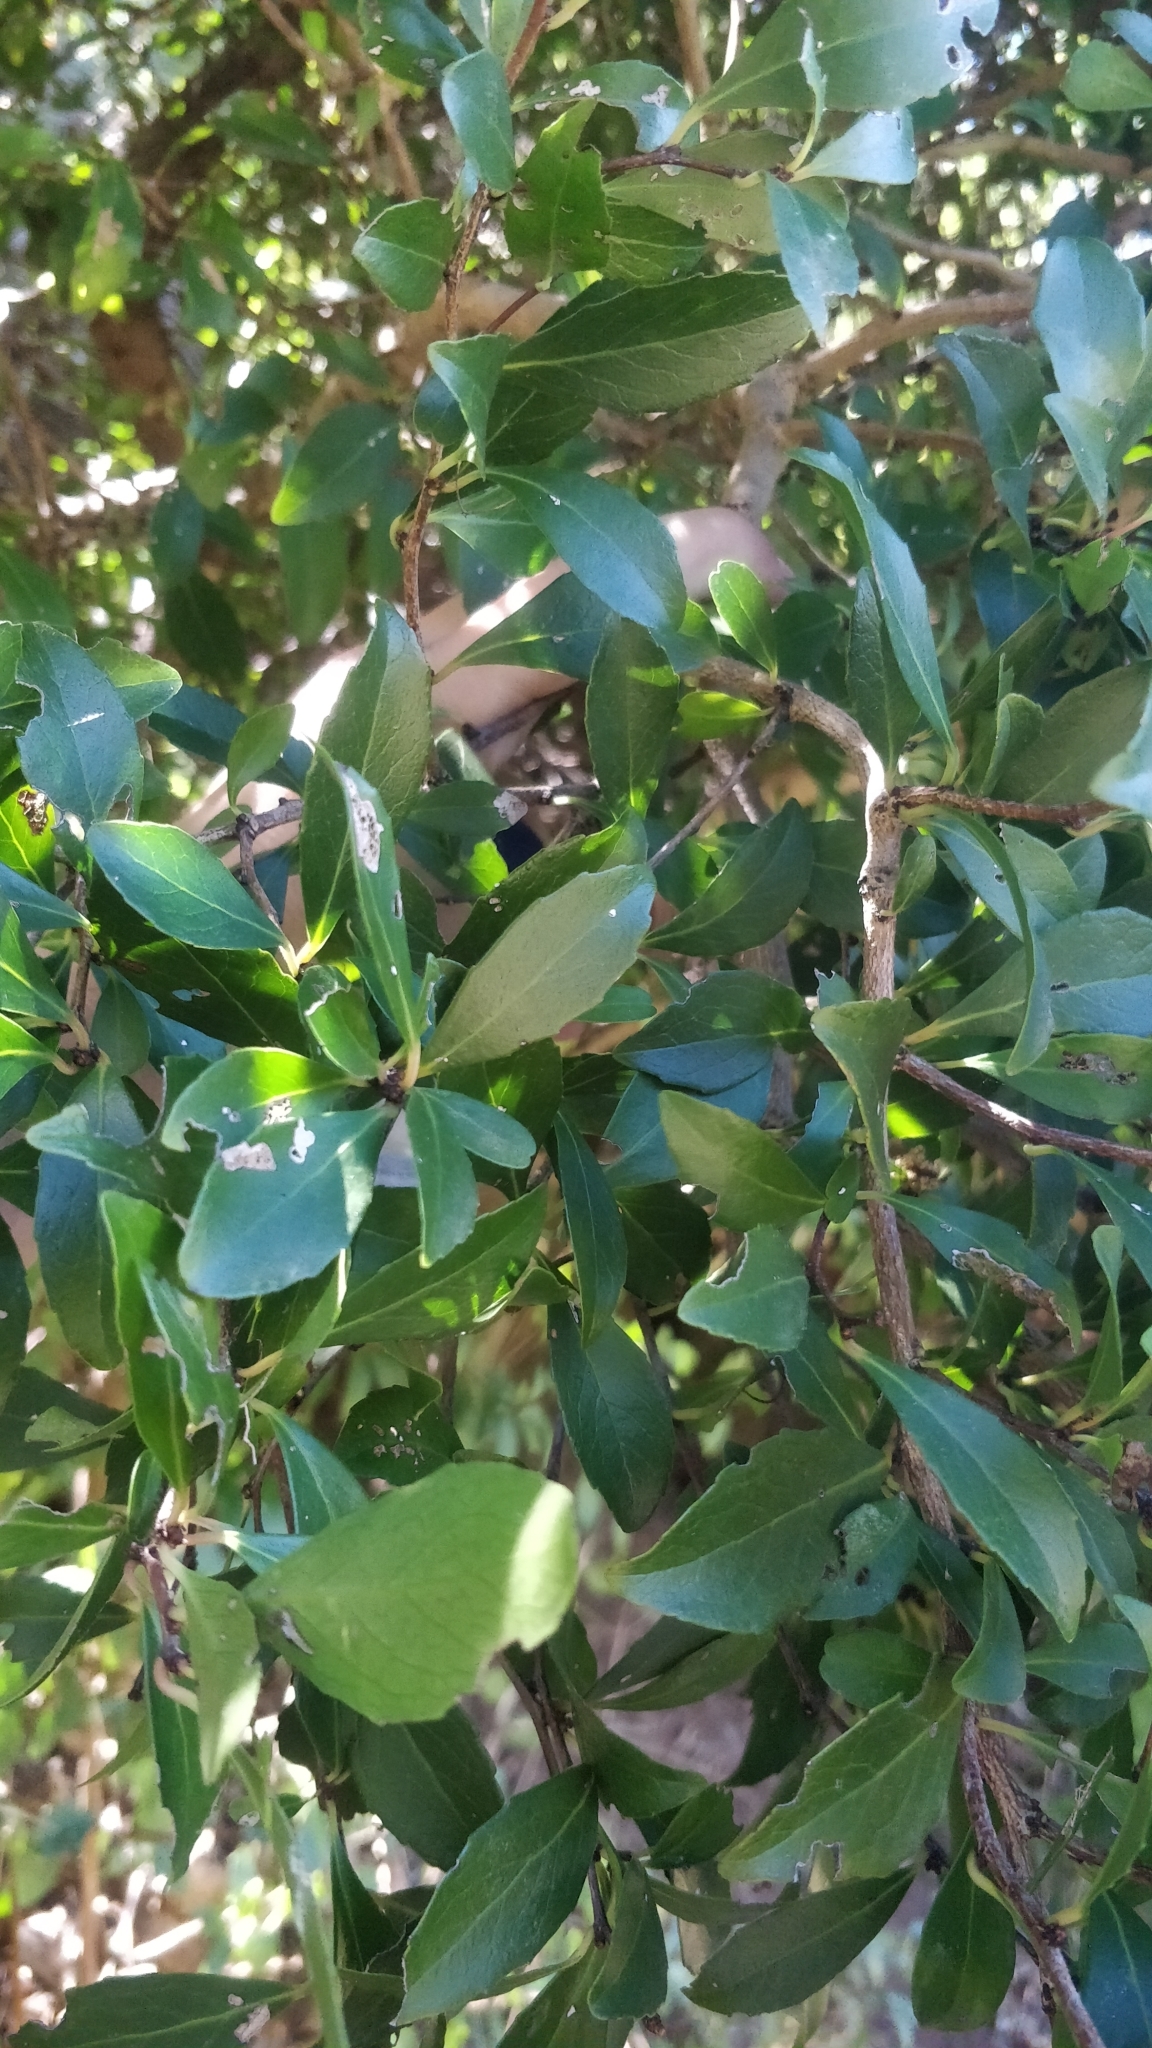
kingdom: Plantae
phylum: Tracheophyta
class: Magnoliopsida
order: Celastrales
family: Celastraceae
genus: Gymnosporia
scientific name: Gymnosporia dryandri
